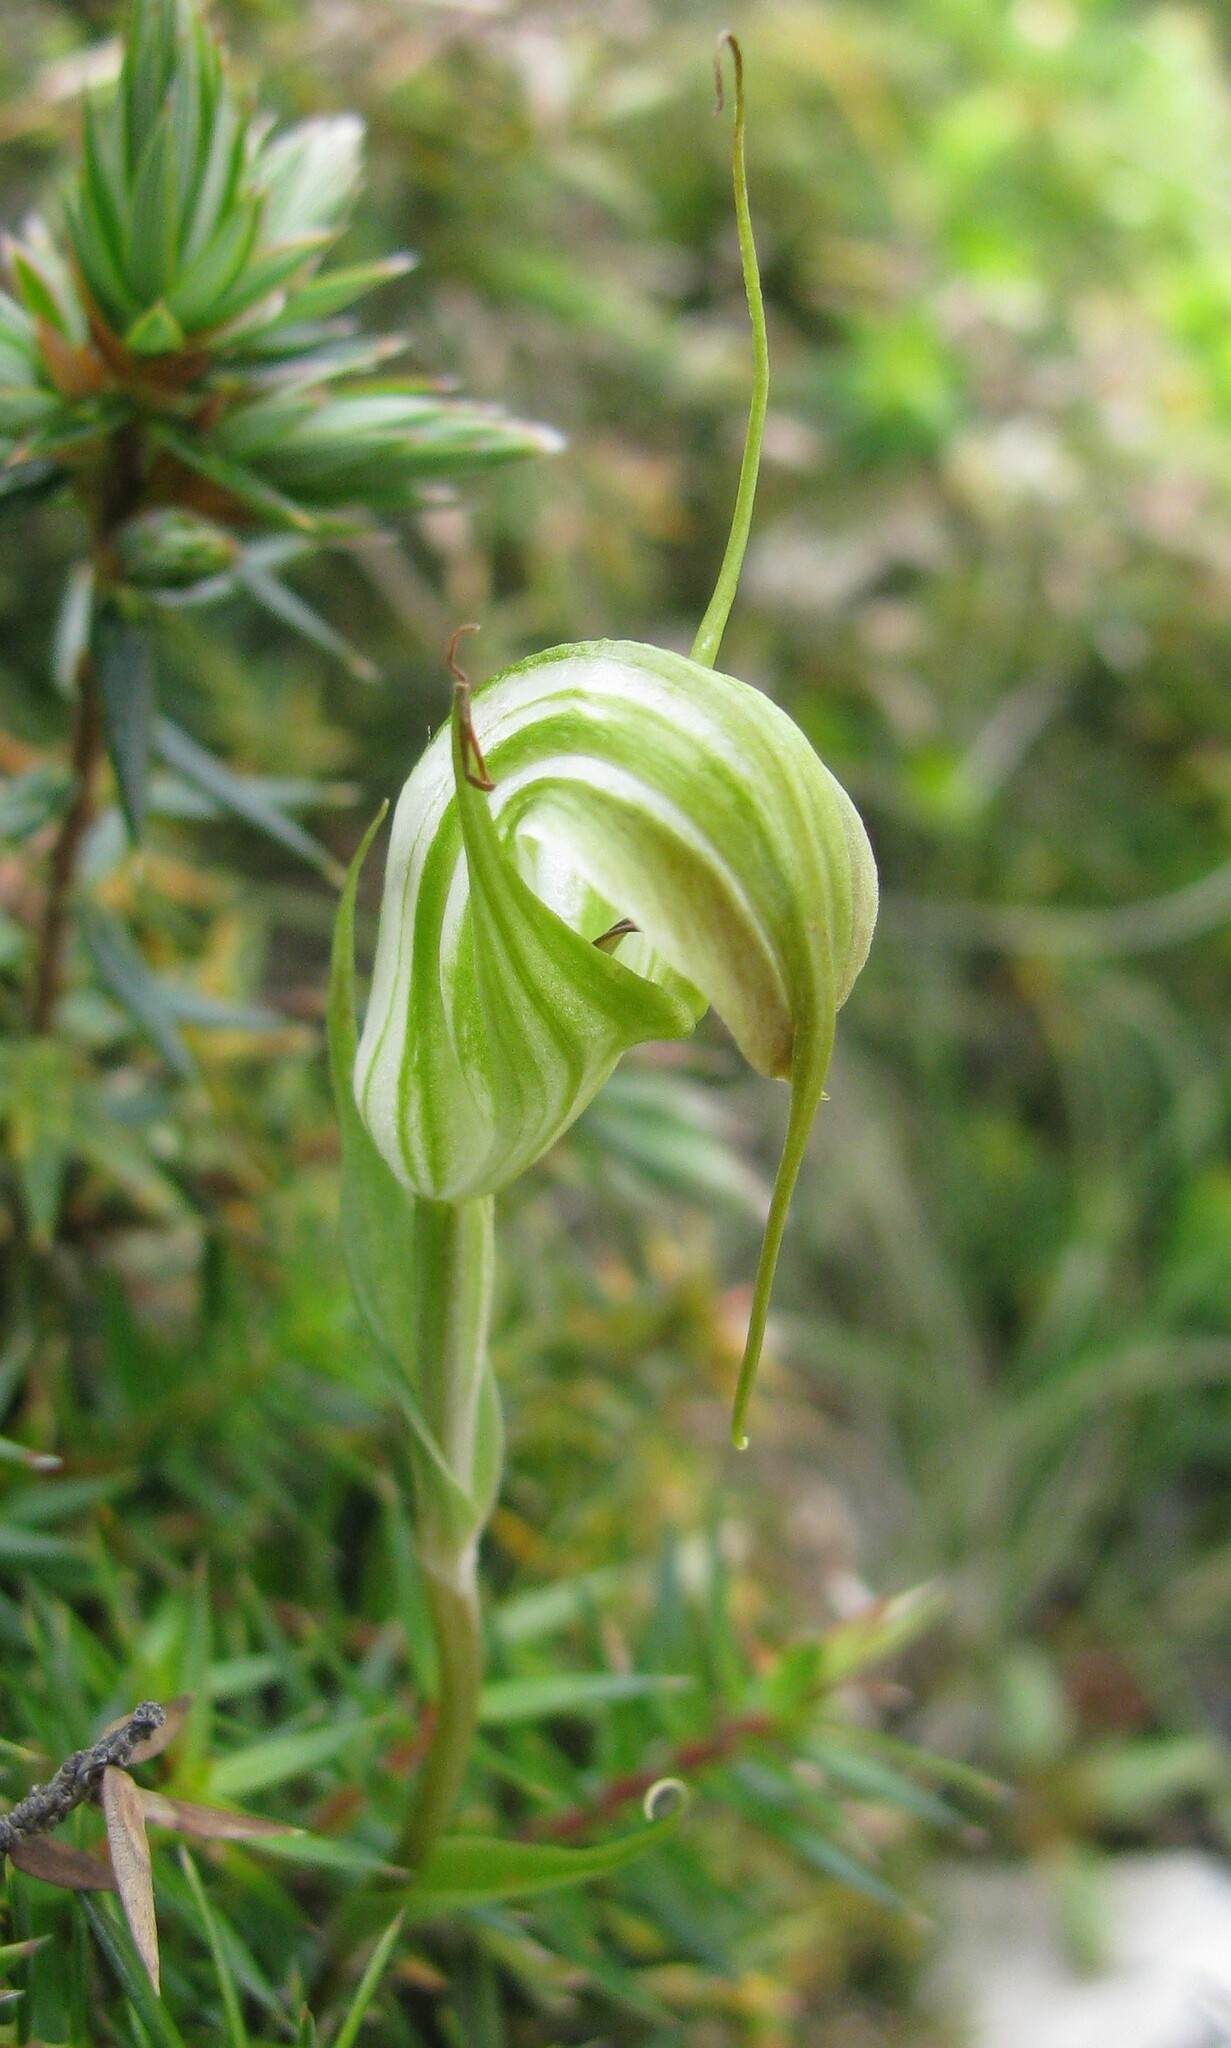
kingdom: Plantae
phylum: Tracheophyta
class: Liliopsida
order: Asparagales
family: Orchidaceae
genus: Pterostylis
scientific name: Pterostylis decurva
